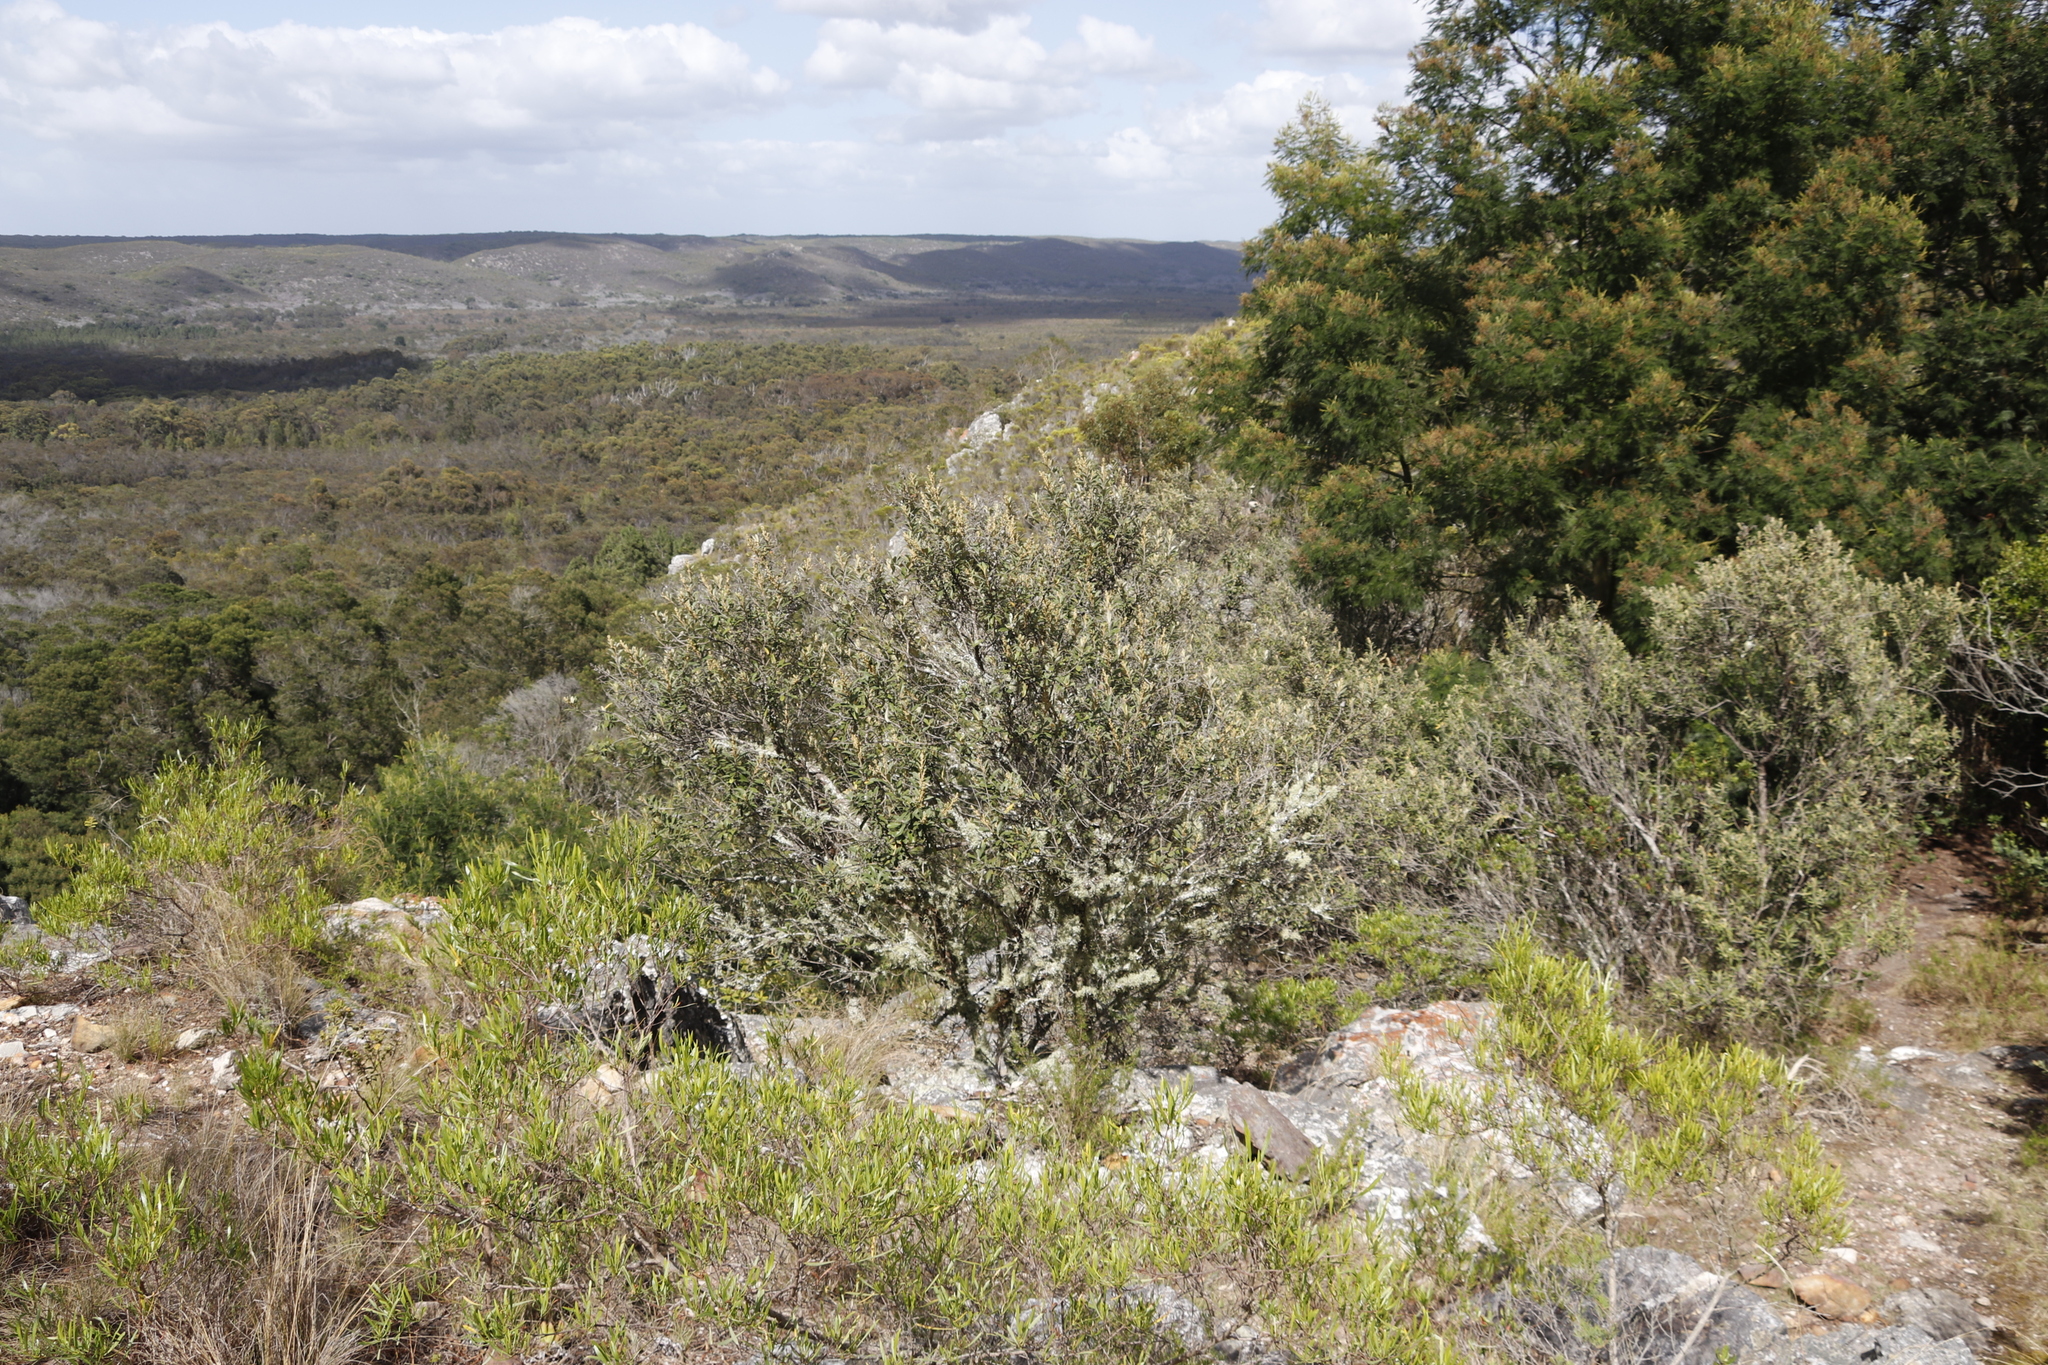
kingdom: Plantae
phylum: Tracheophyta
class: Magnoliopsida
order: Fabales
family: Fabaceae
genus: Acacia
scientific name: Acacia mearnsii
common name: Black wattle
